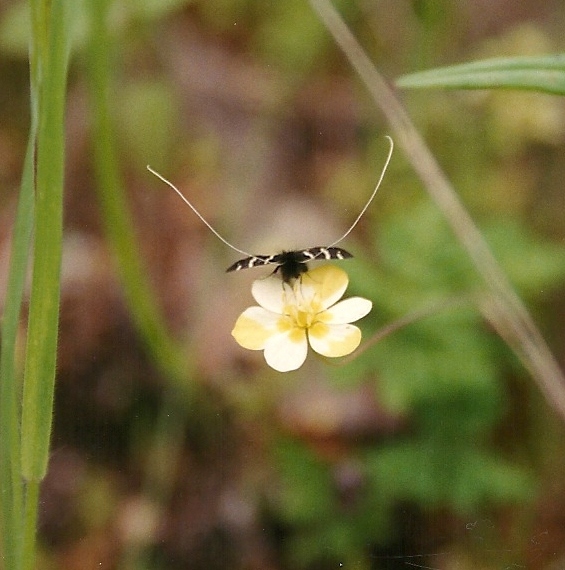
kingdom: Animalia
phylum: Arthropoda
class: Insecta
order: Lepidoptera
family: Adelidae
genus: Adela
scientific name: Adela trigrapha
